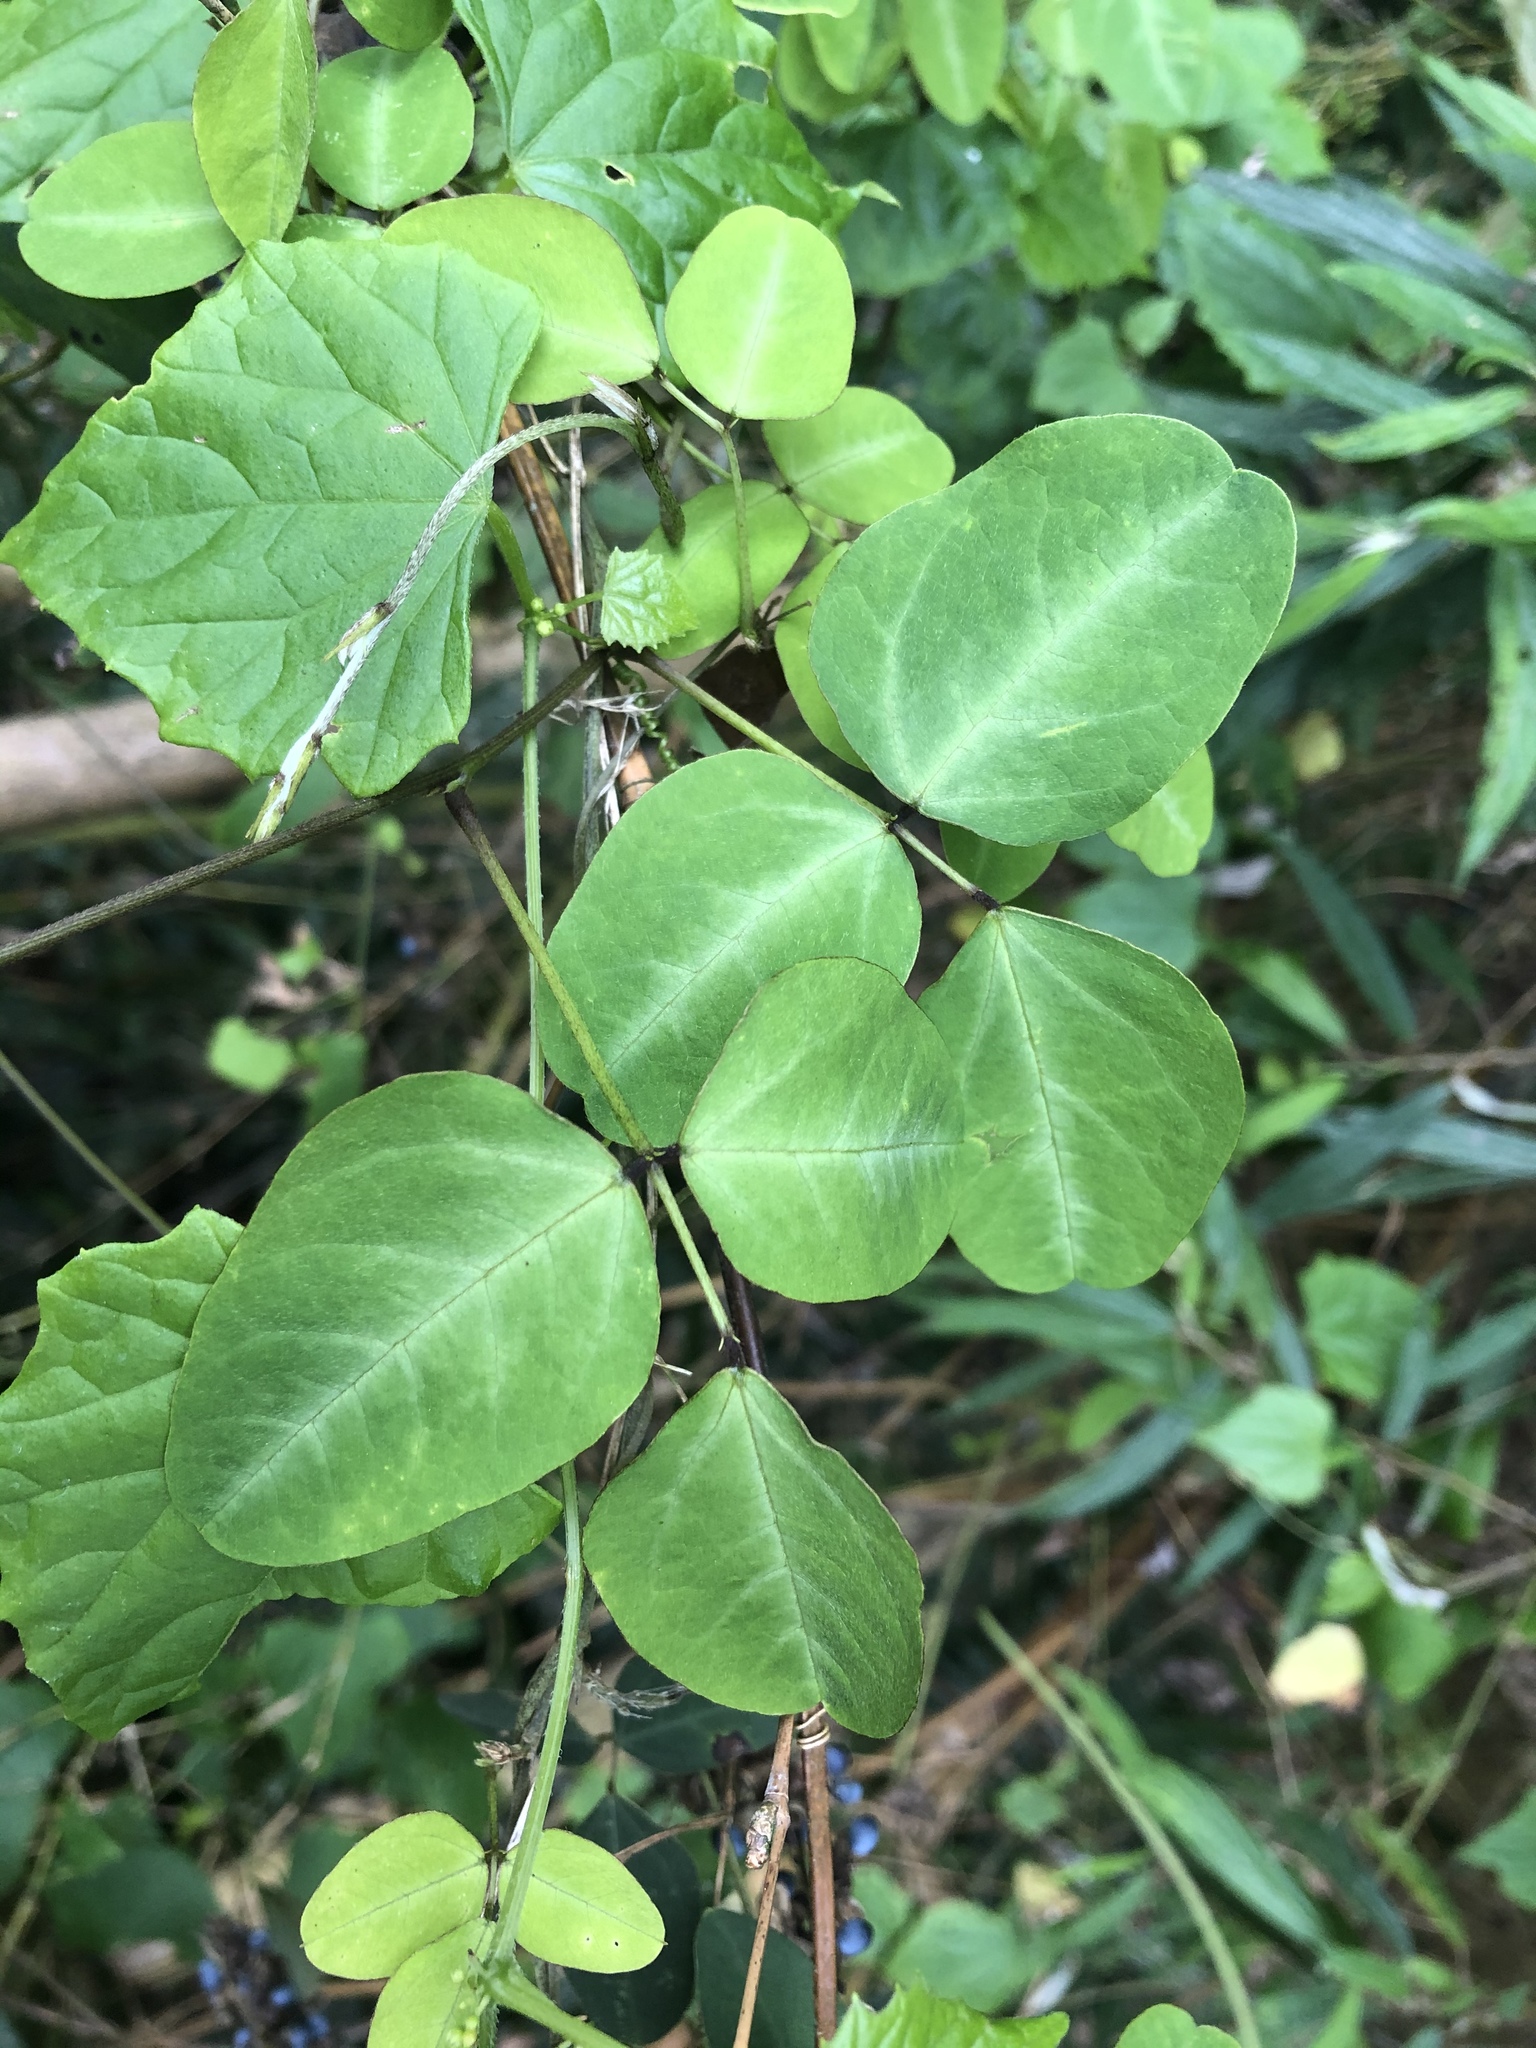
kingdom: Plantae
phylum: Tracheophyta
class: Magnoliopsida
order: Fabales
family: Fabaceae
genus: Dumasia
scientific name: Dumasia villosa
